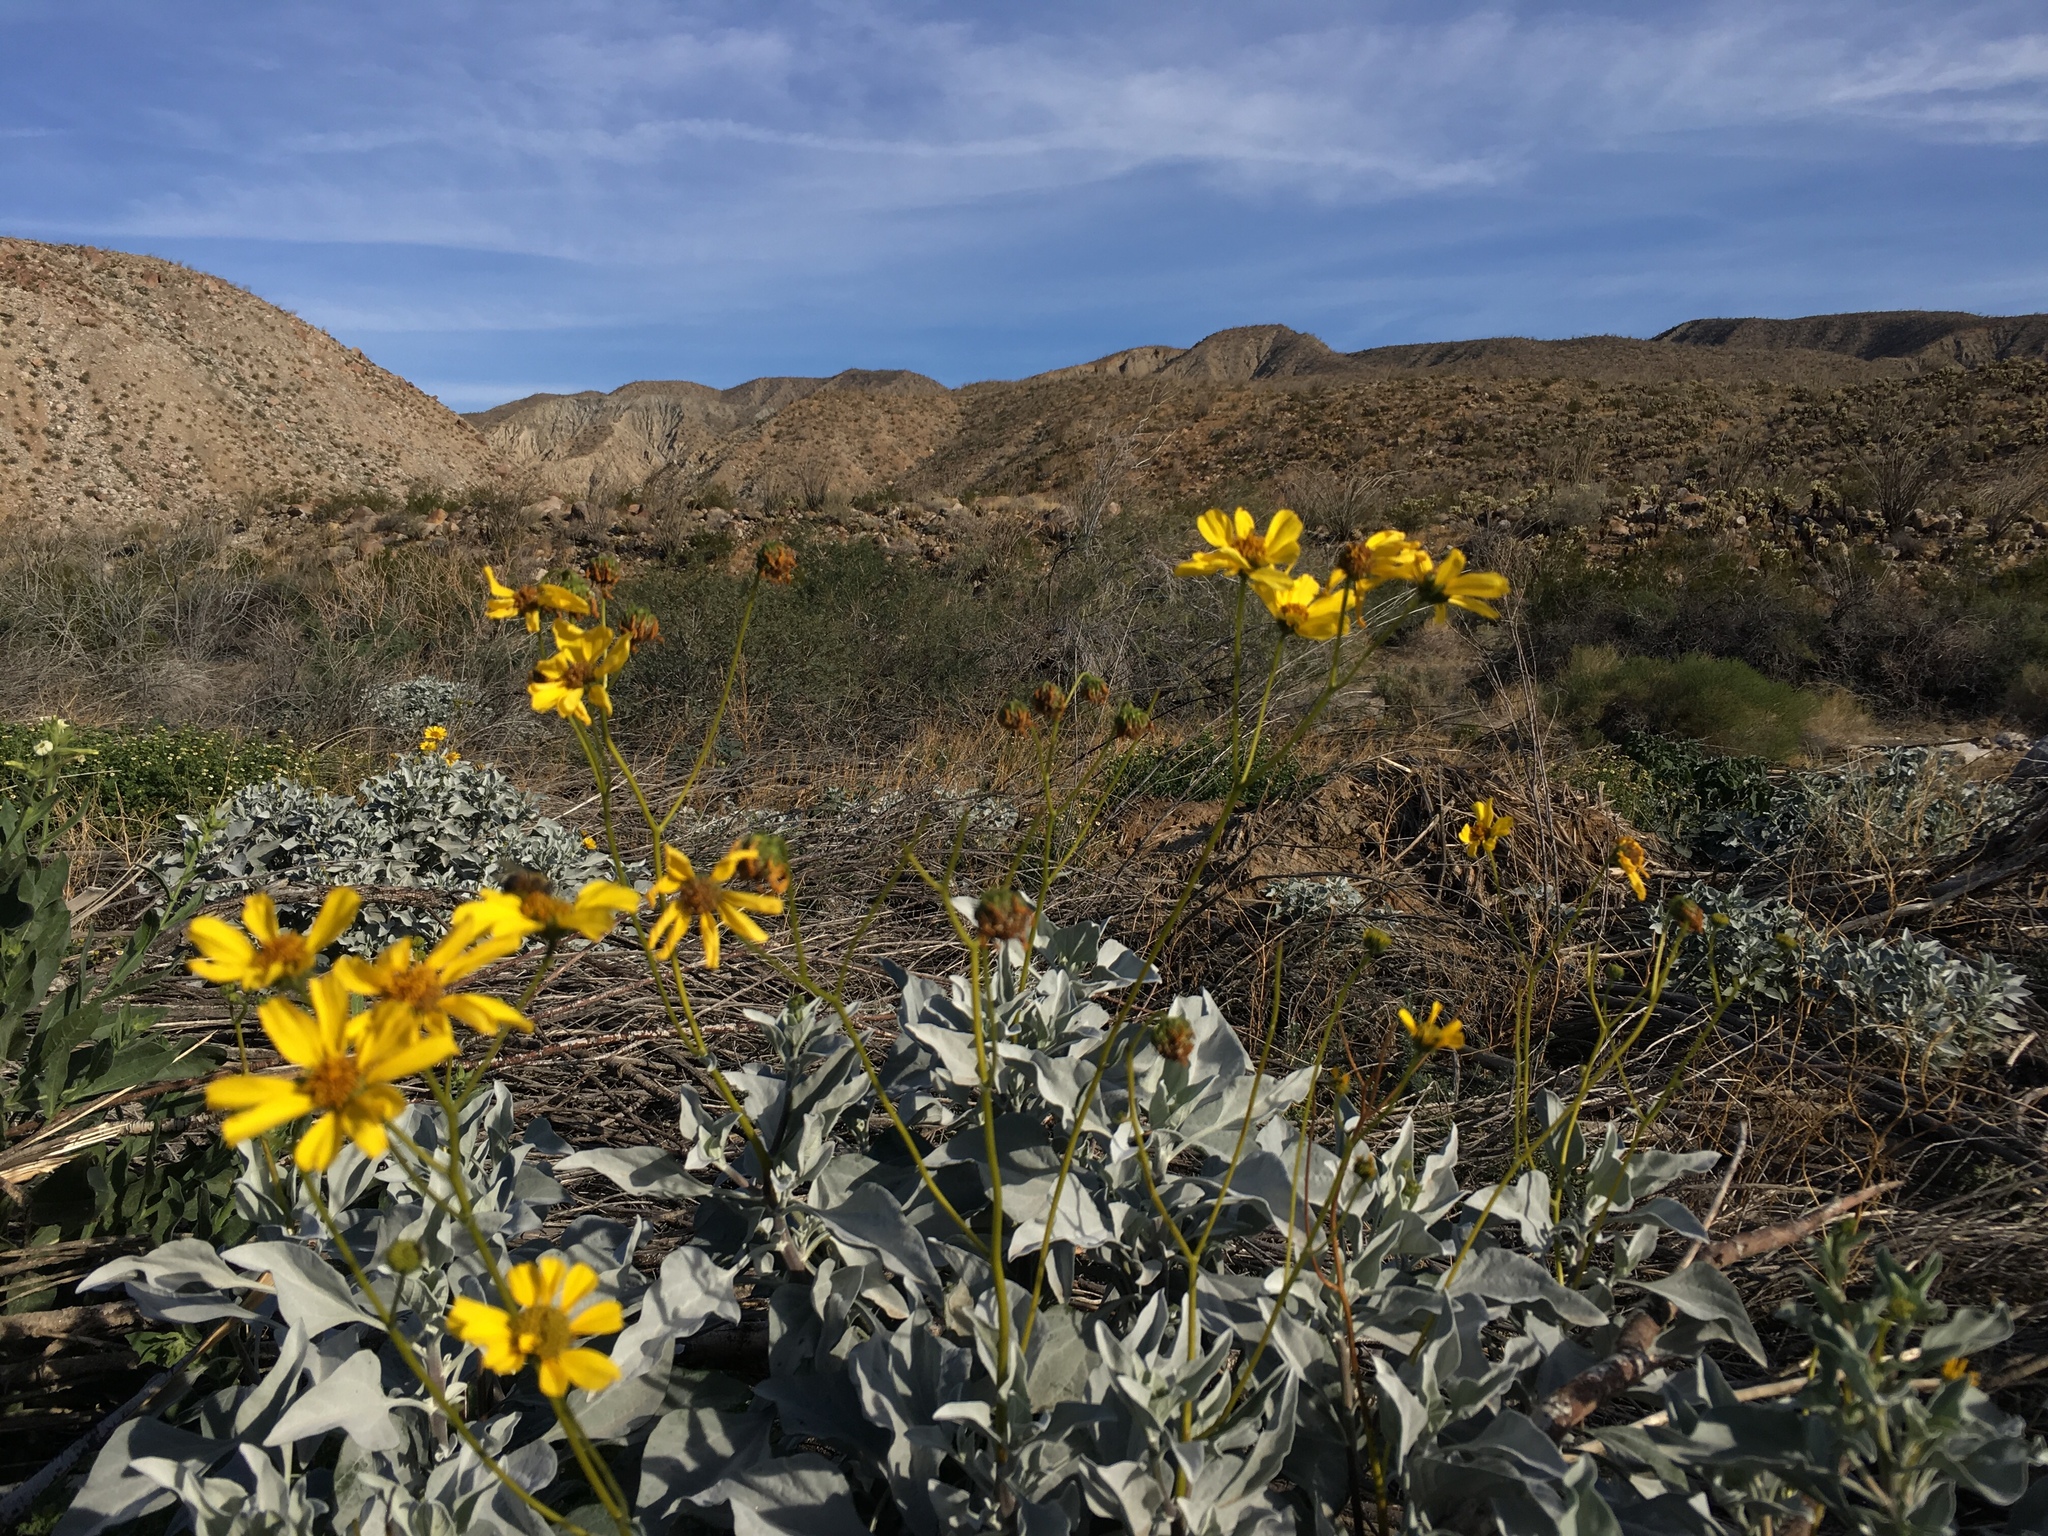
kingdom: Plantae
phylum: Tracheophyta
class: Magnoliopsida
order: Asterales
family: Asteraceae
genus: Encelia
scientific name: Encelia farinosa
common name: Brittlebush
